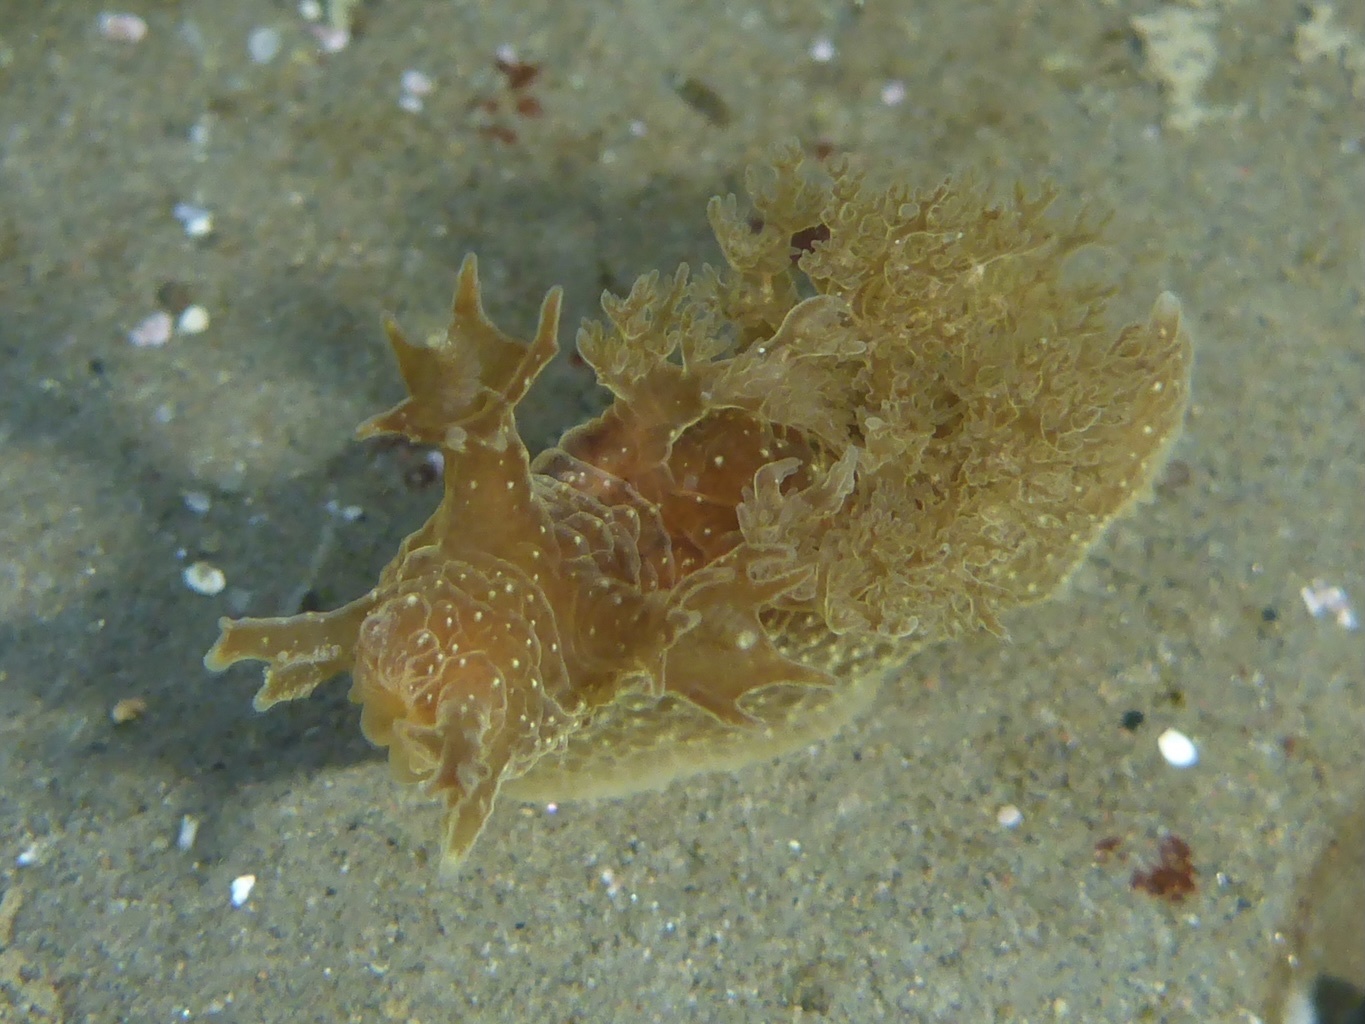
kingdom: Animalia
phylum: Mollusca
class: Gastropoda
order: Nudibranchia
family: Dendronotidae
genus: Dendronotus
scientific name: Dendronotus subramosus
